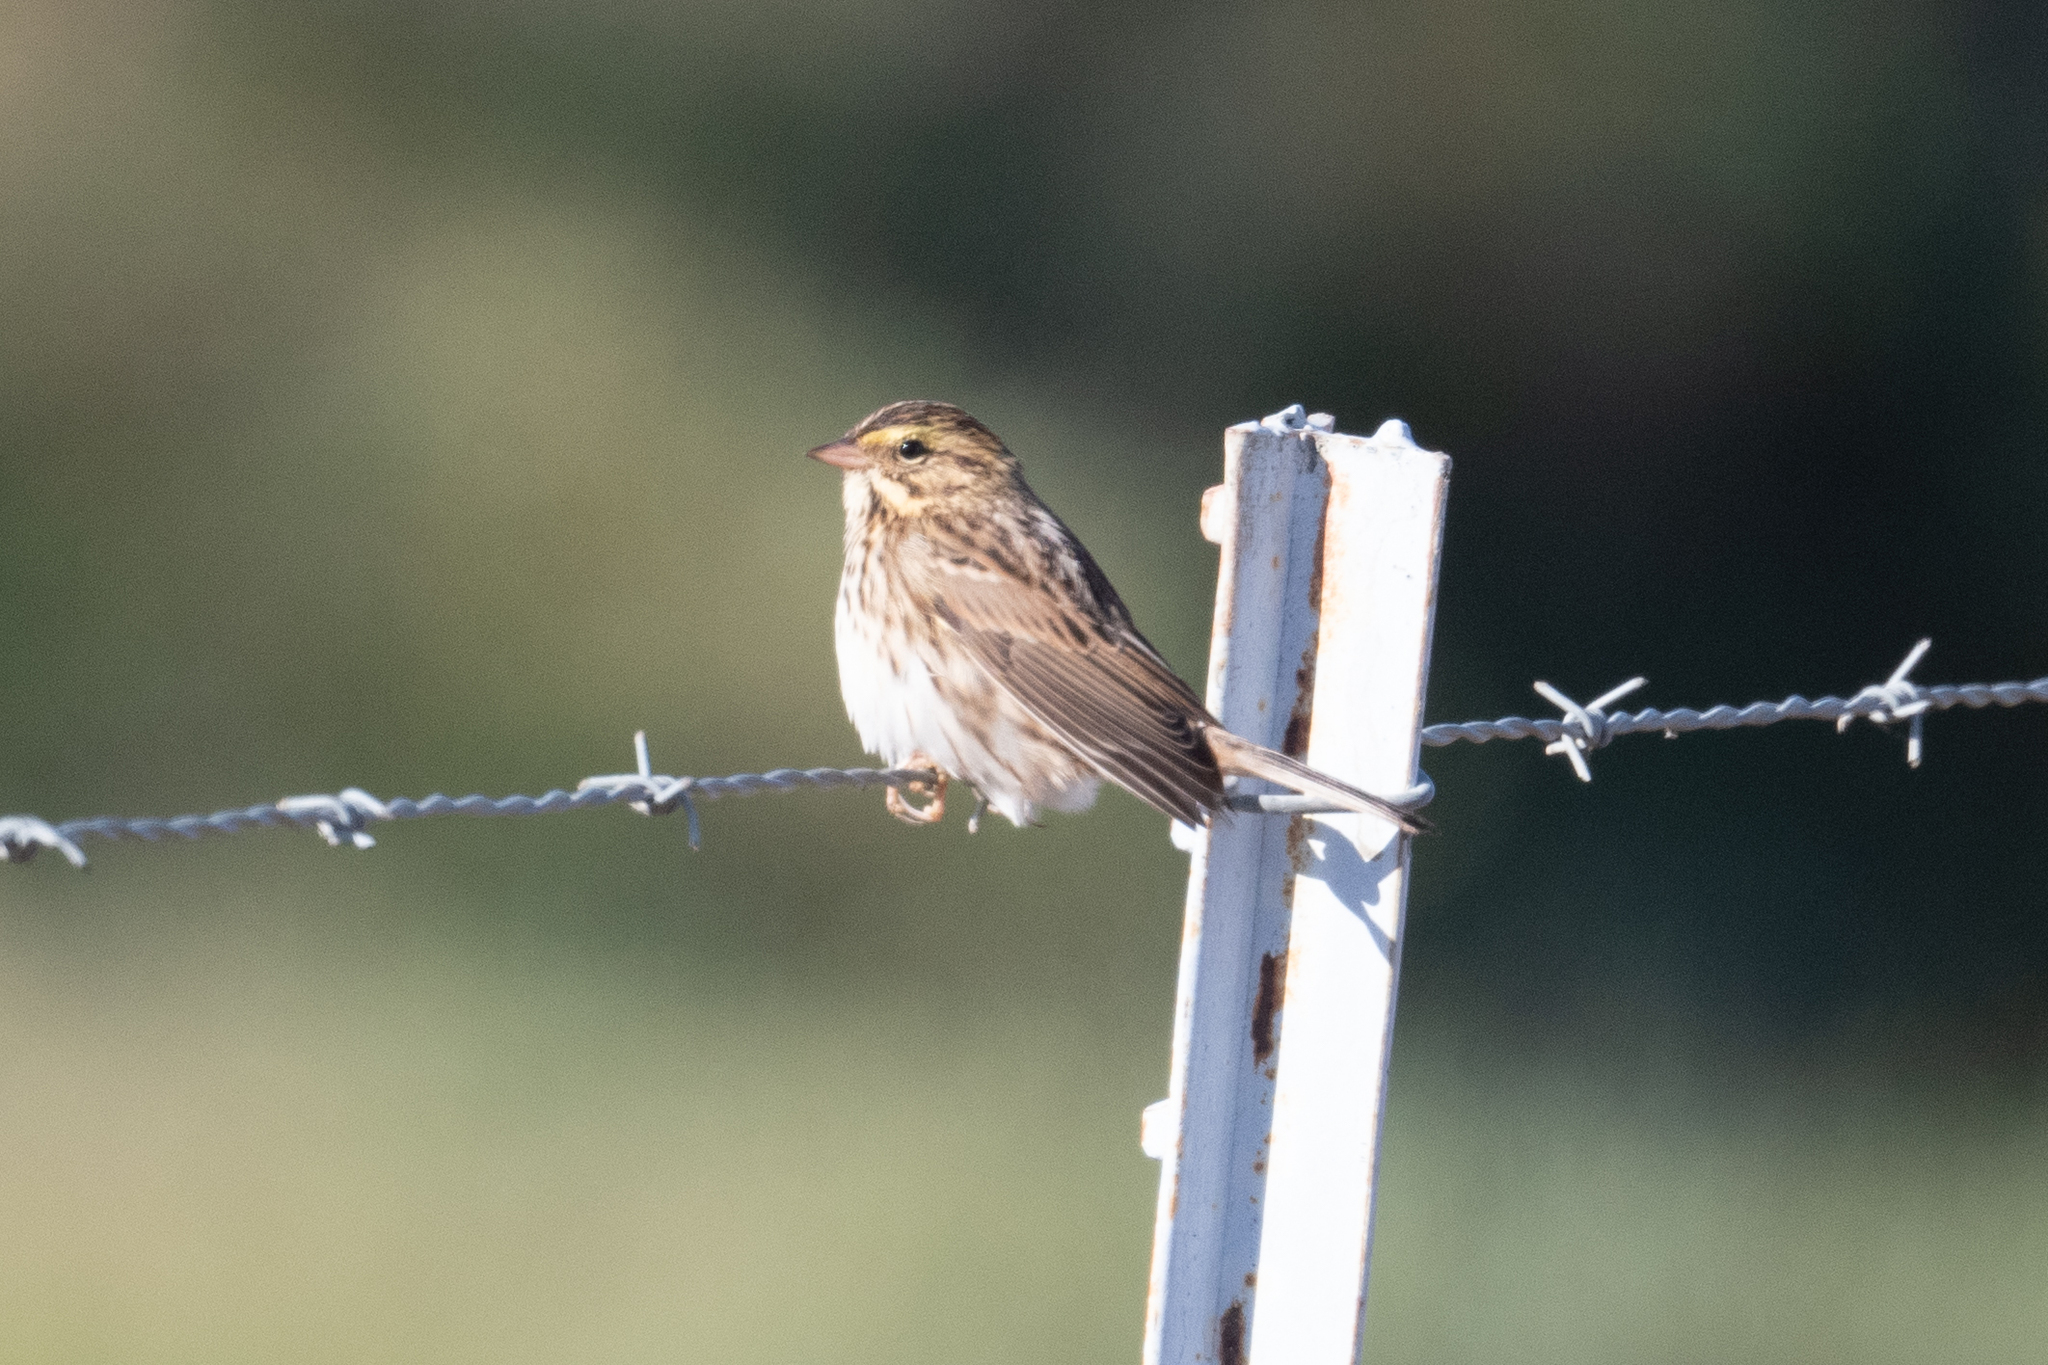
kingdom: Animalia
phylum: Chordata
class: Aves
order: Passeriformes
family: Passerellidae
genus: Passerculus
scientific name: Passerculus sandwichensis
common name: Savannah sparrow
